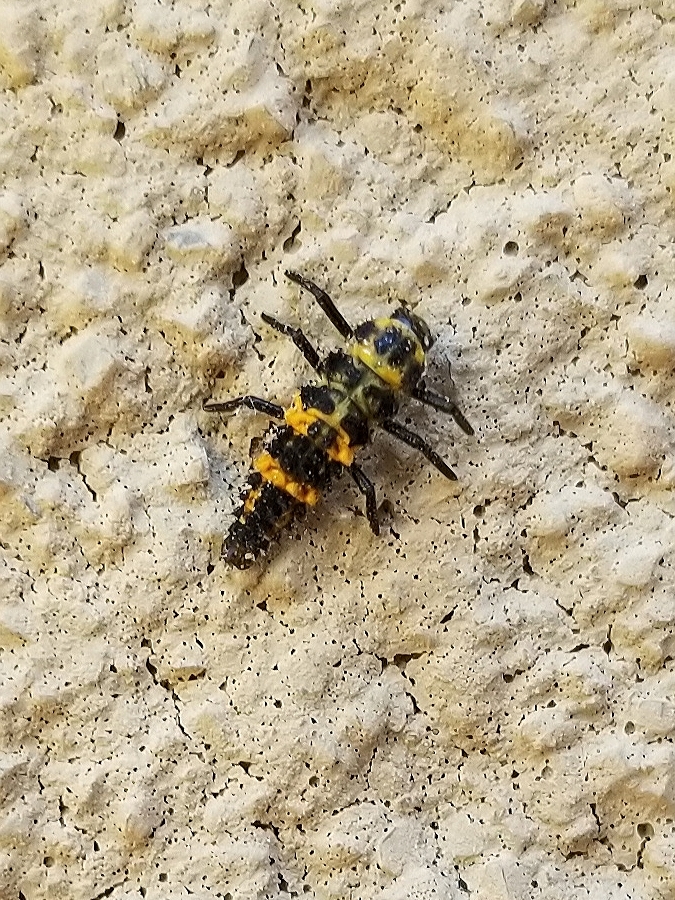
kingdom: Animalia
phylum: Arthropoda
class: Insecta
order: Coleoptera
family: Coccinellidae
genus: Hippodamia
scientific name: Hippodamia convergens
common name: Convergent lady beetle
